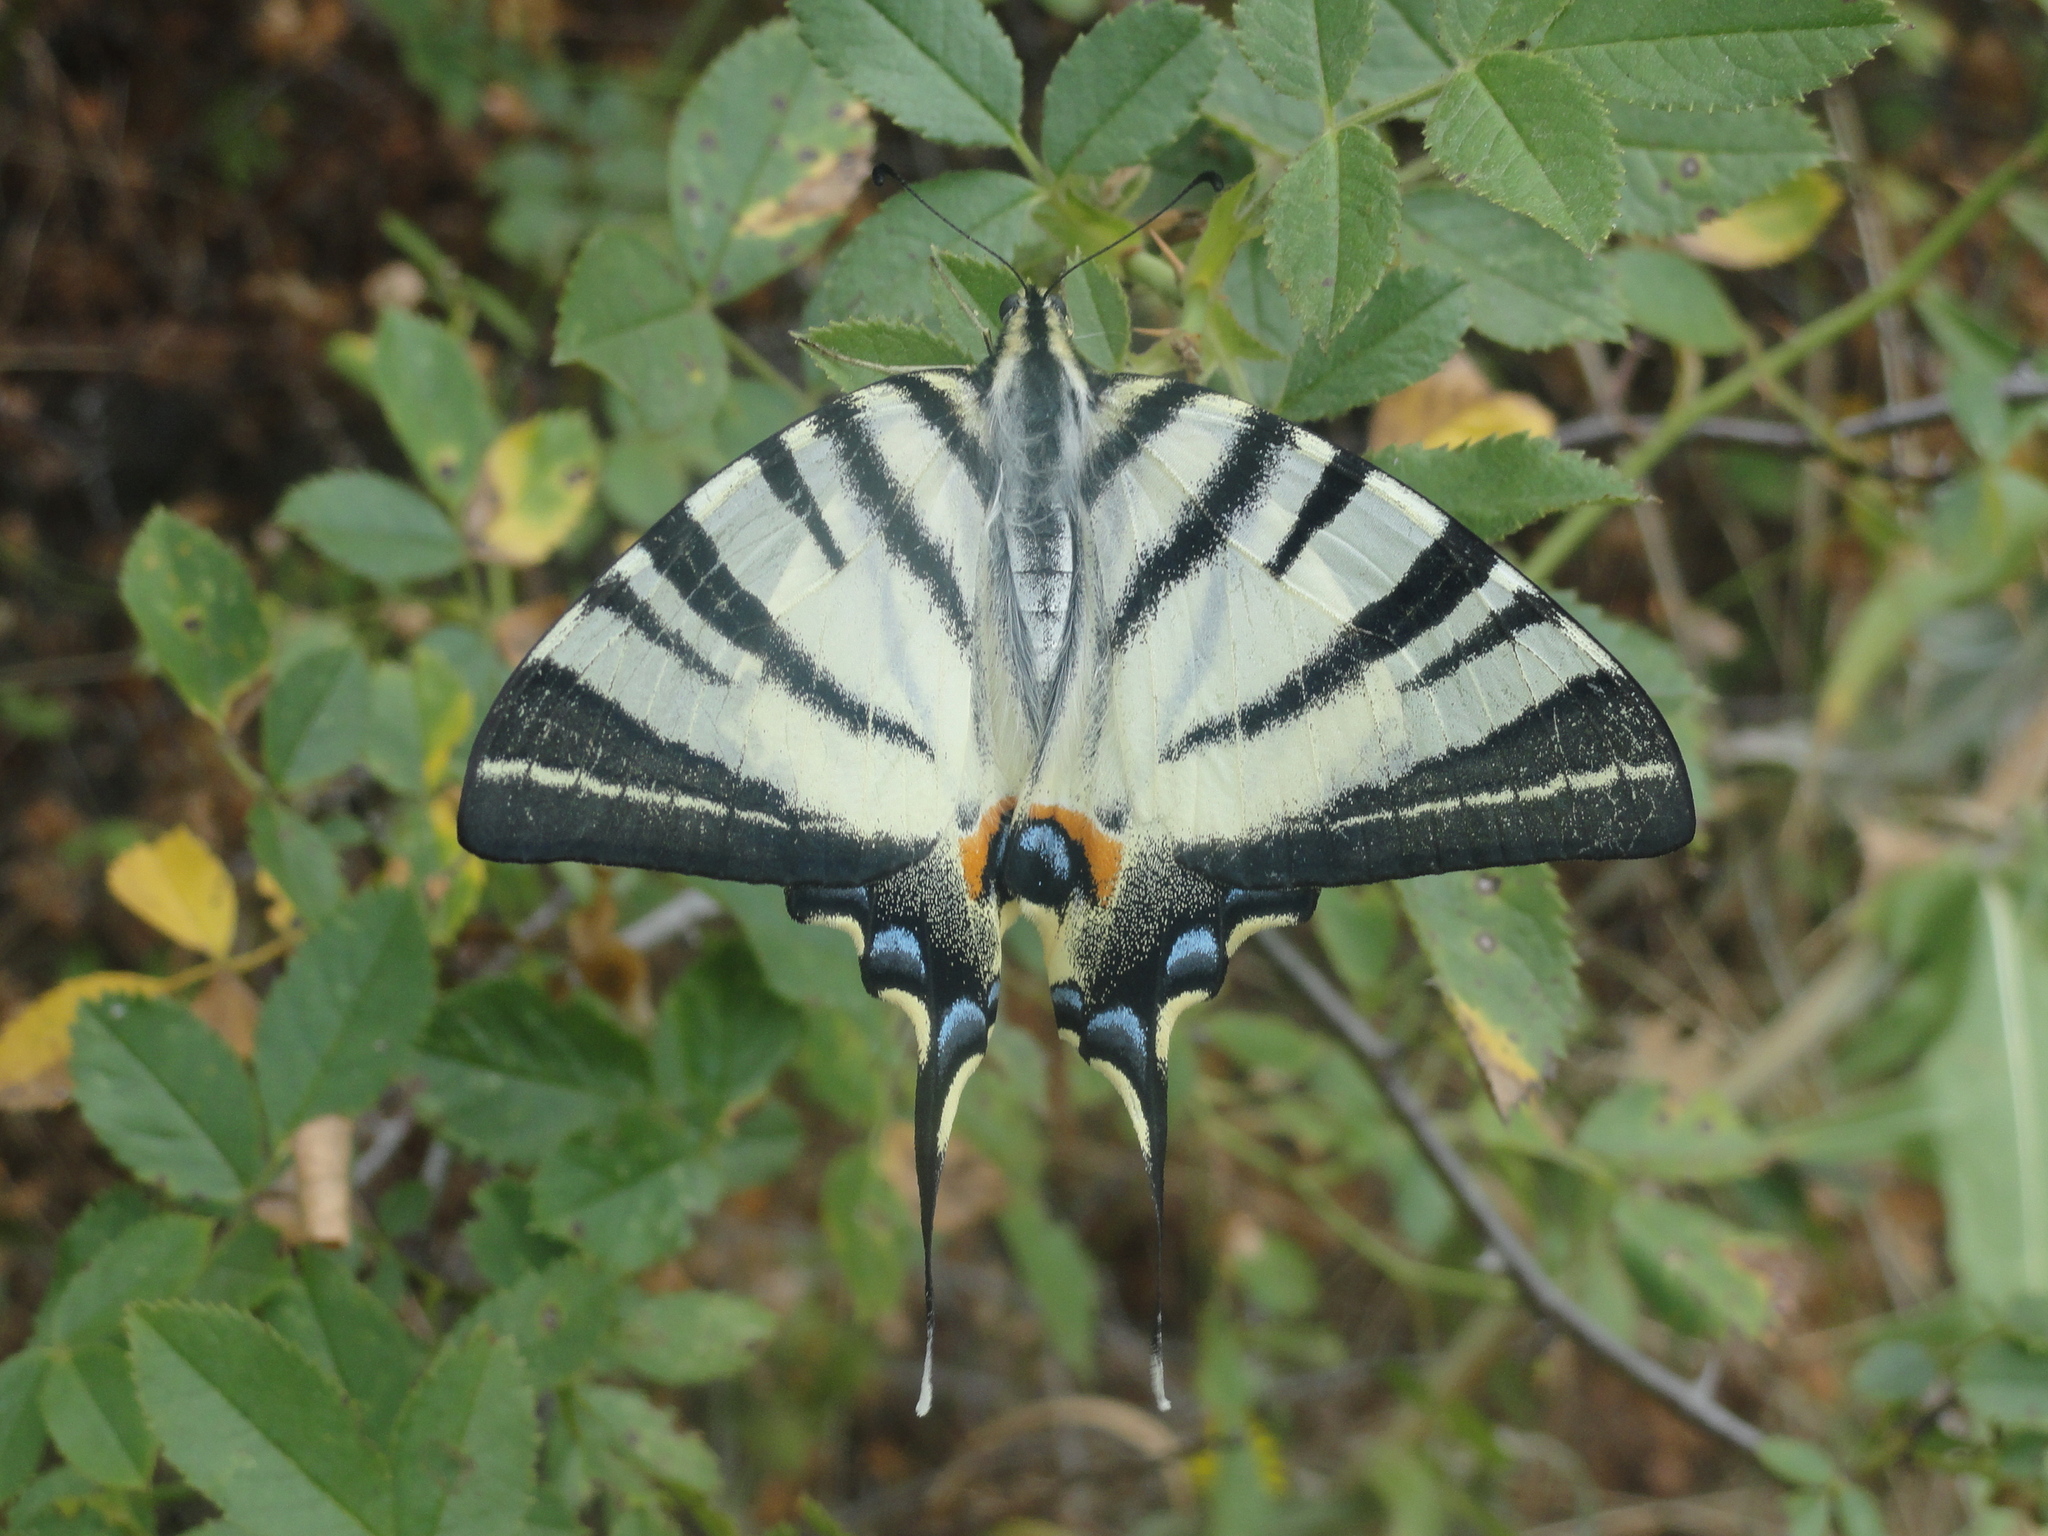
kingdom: Animalia
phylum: Arthropoda
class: Insecta
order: Lepidoptera
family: Papilionidae
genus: Iphiclides
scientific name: Iphiclides podalirius
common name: Scarce swallowtail
